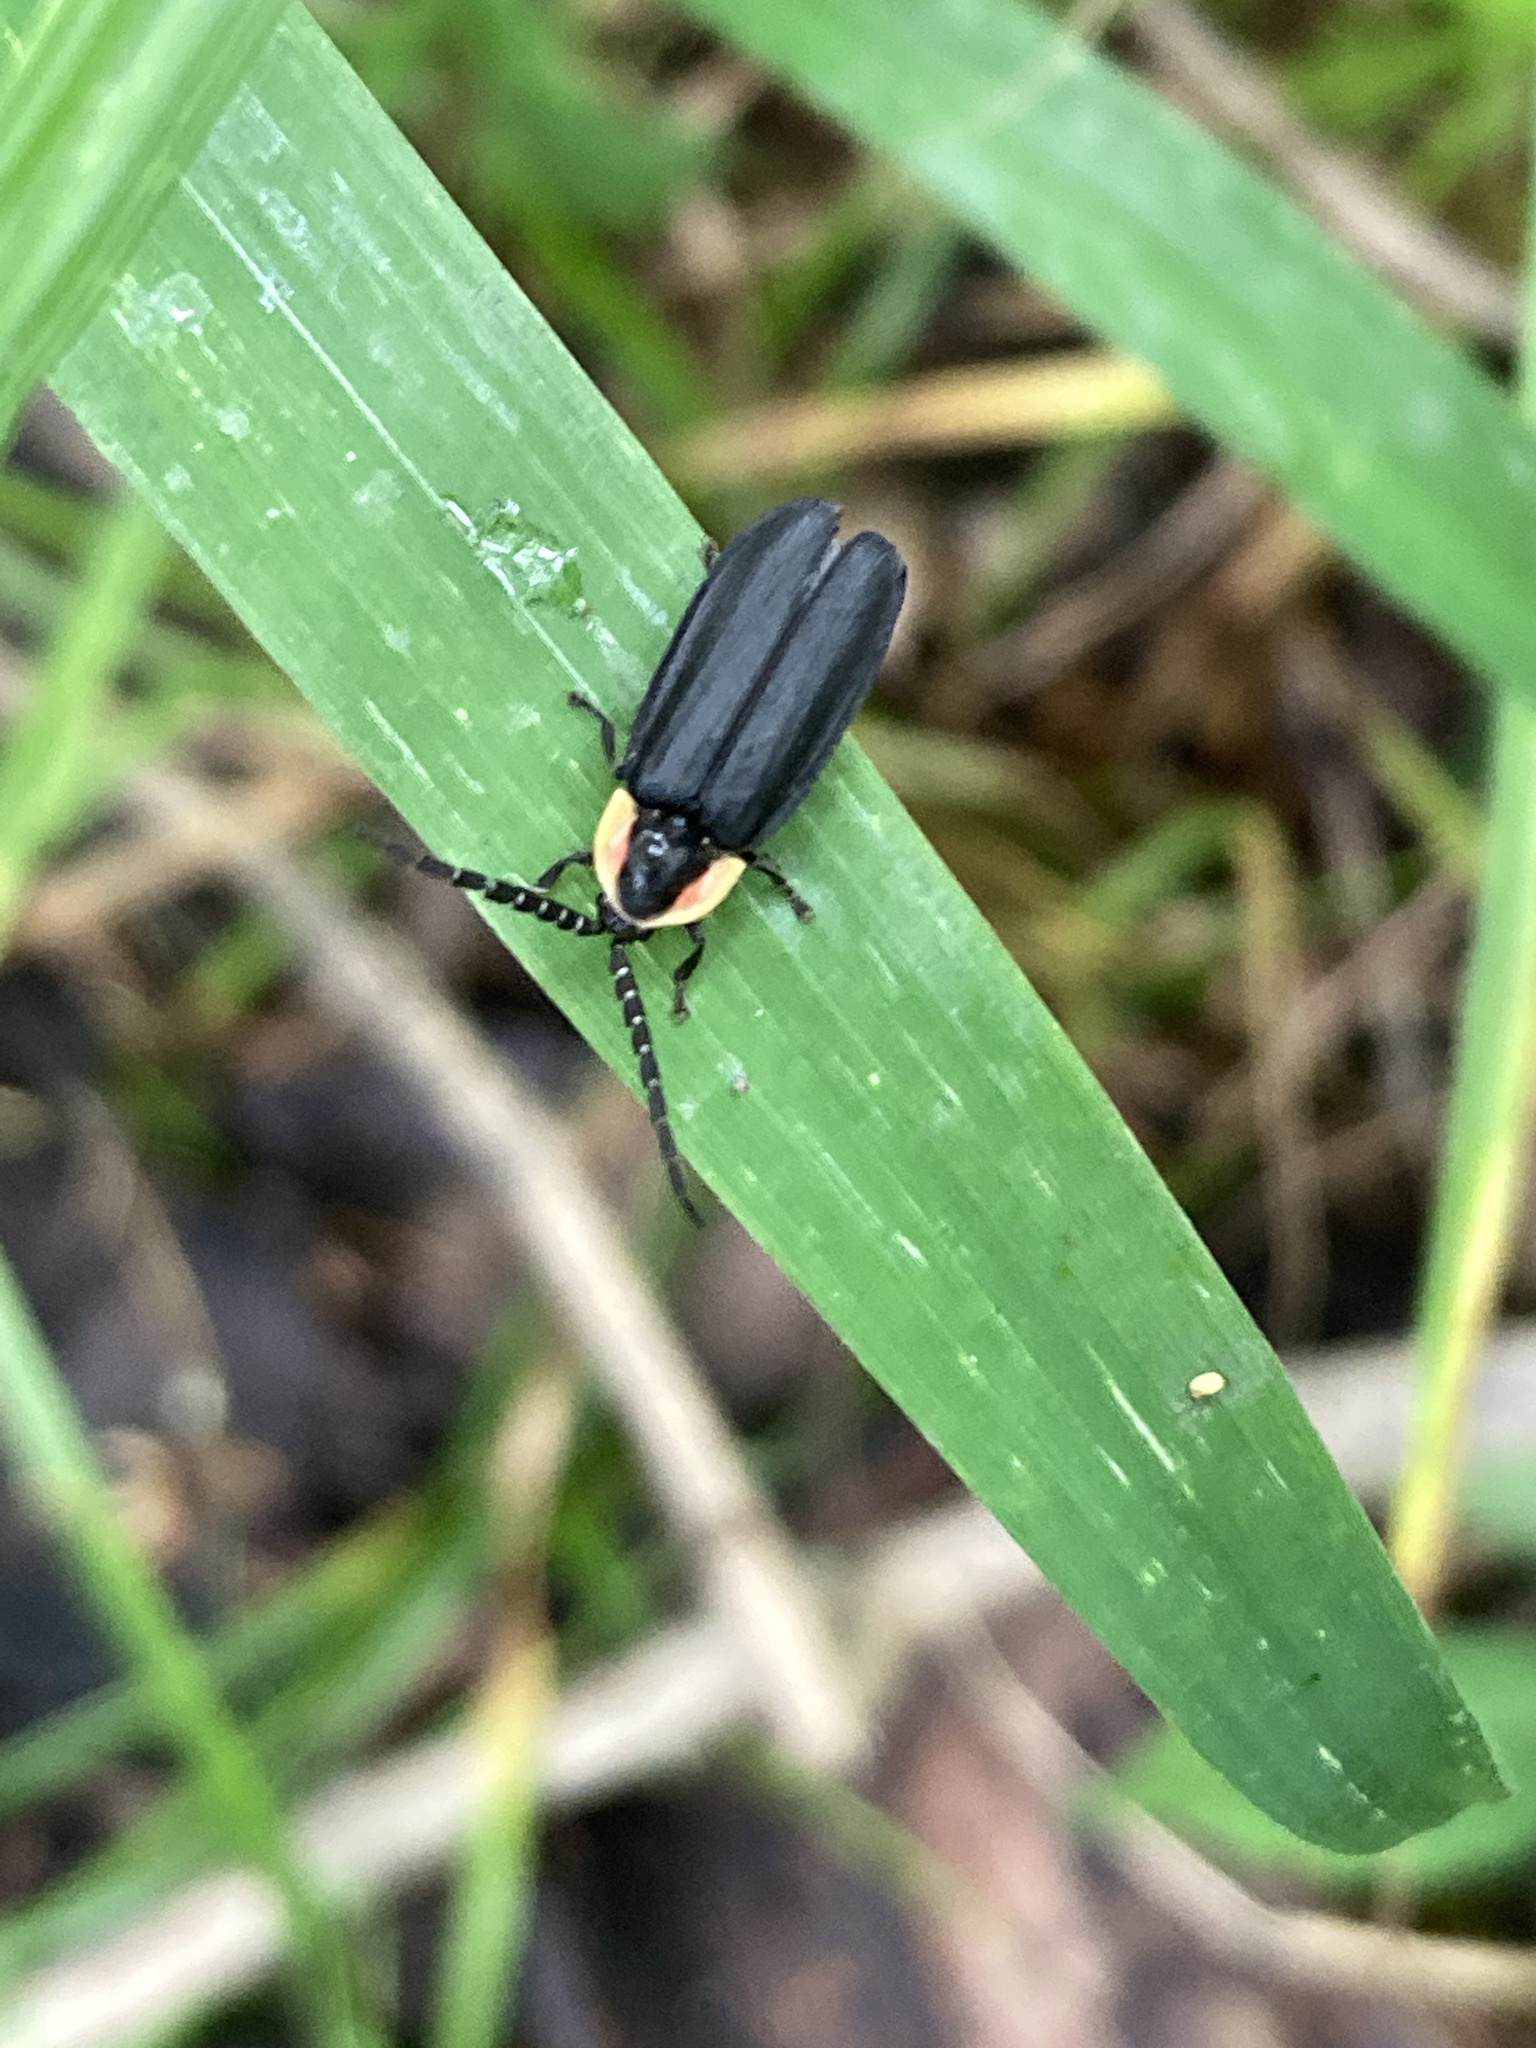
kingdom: Animalia
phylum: Arthropoda
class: Insecta
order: Coleoptera
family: Lampyridae
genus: Lucidota
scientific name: Lucidota atra
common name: Black firefly
